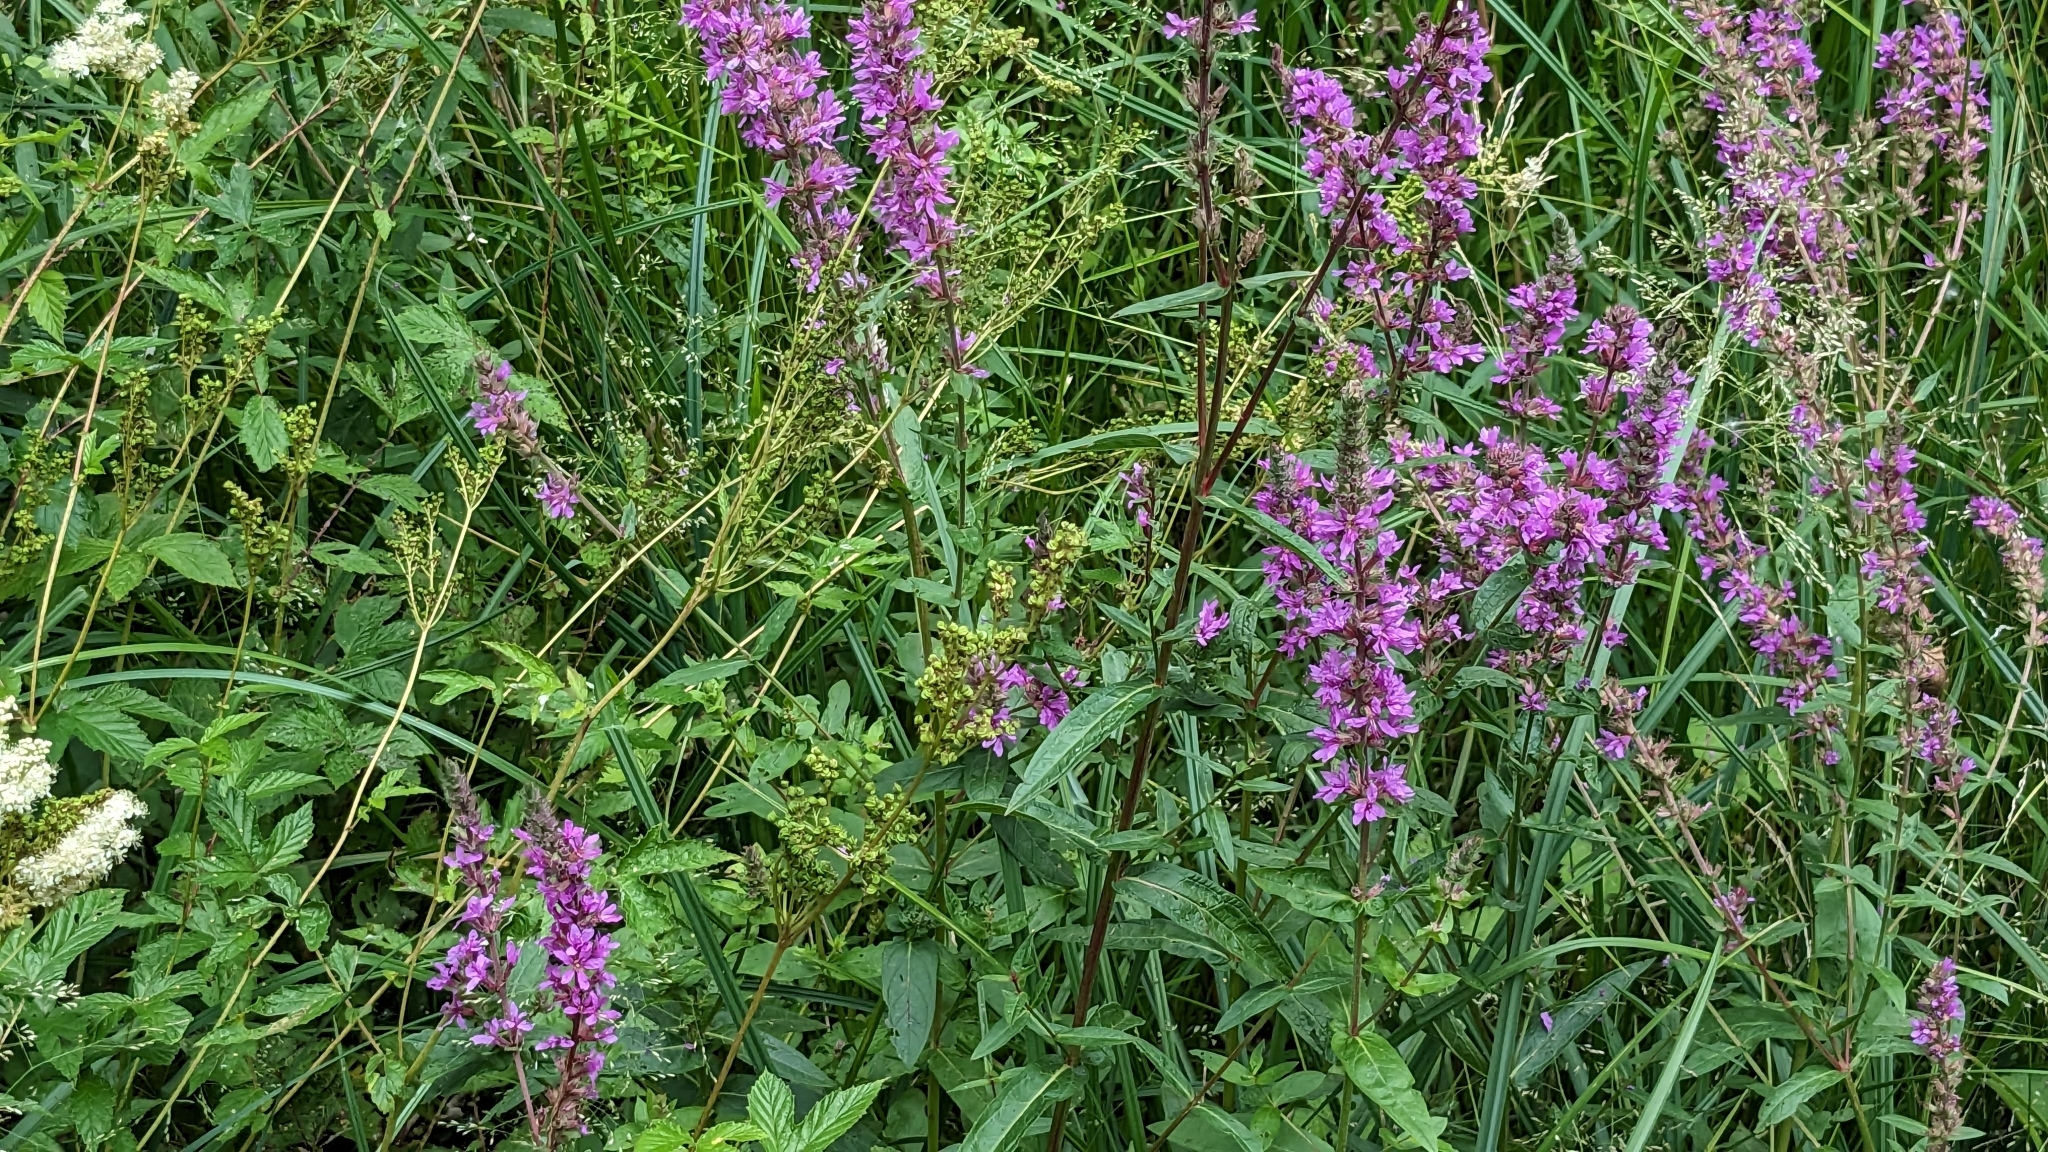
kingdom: Plantae
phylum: Tracheophyta
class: Magnoliopsida
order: Myrtales
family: Lythraceae
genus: Lythrum
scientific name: Lythrum salicaria
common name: Purple loosestrife
